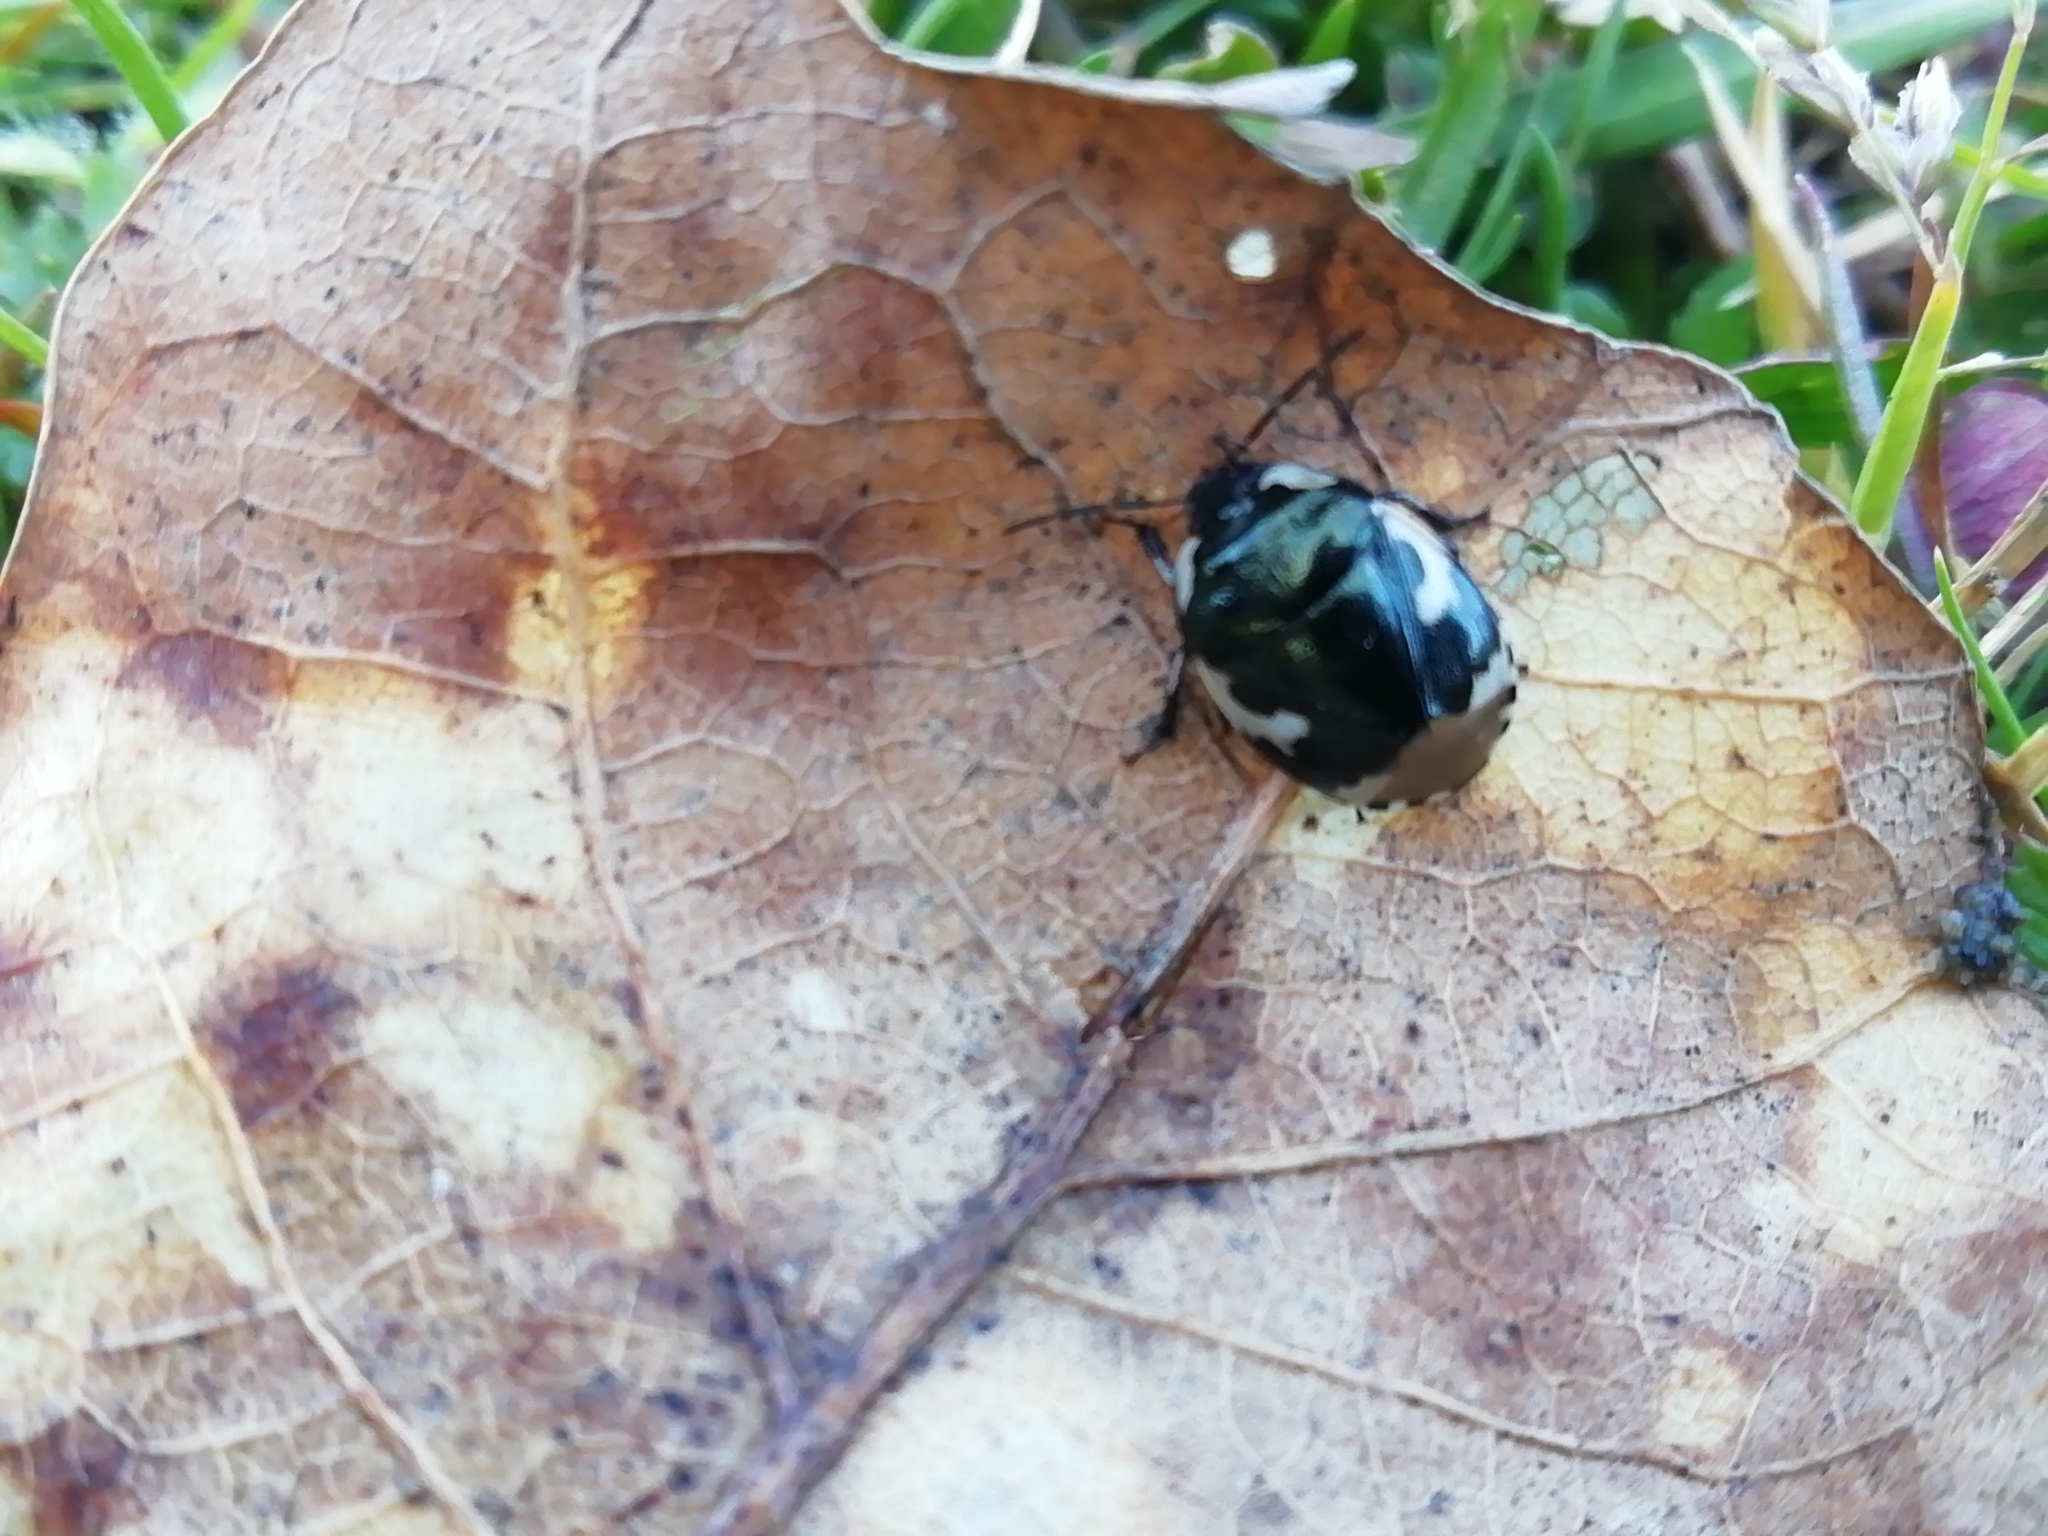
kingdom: Animalia
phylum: Arthropoda
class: Insecta
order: Hemiptera
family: Cydnidae
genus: Tritomegas
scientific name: Tritomegas bicolor
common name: Pied shieldbug
